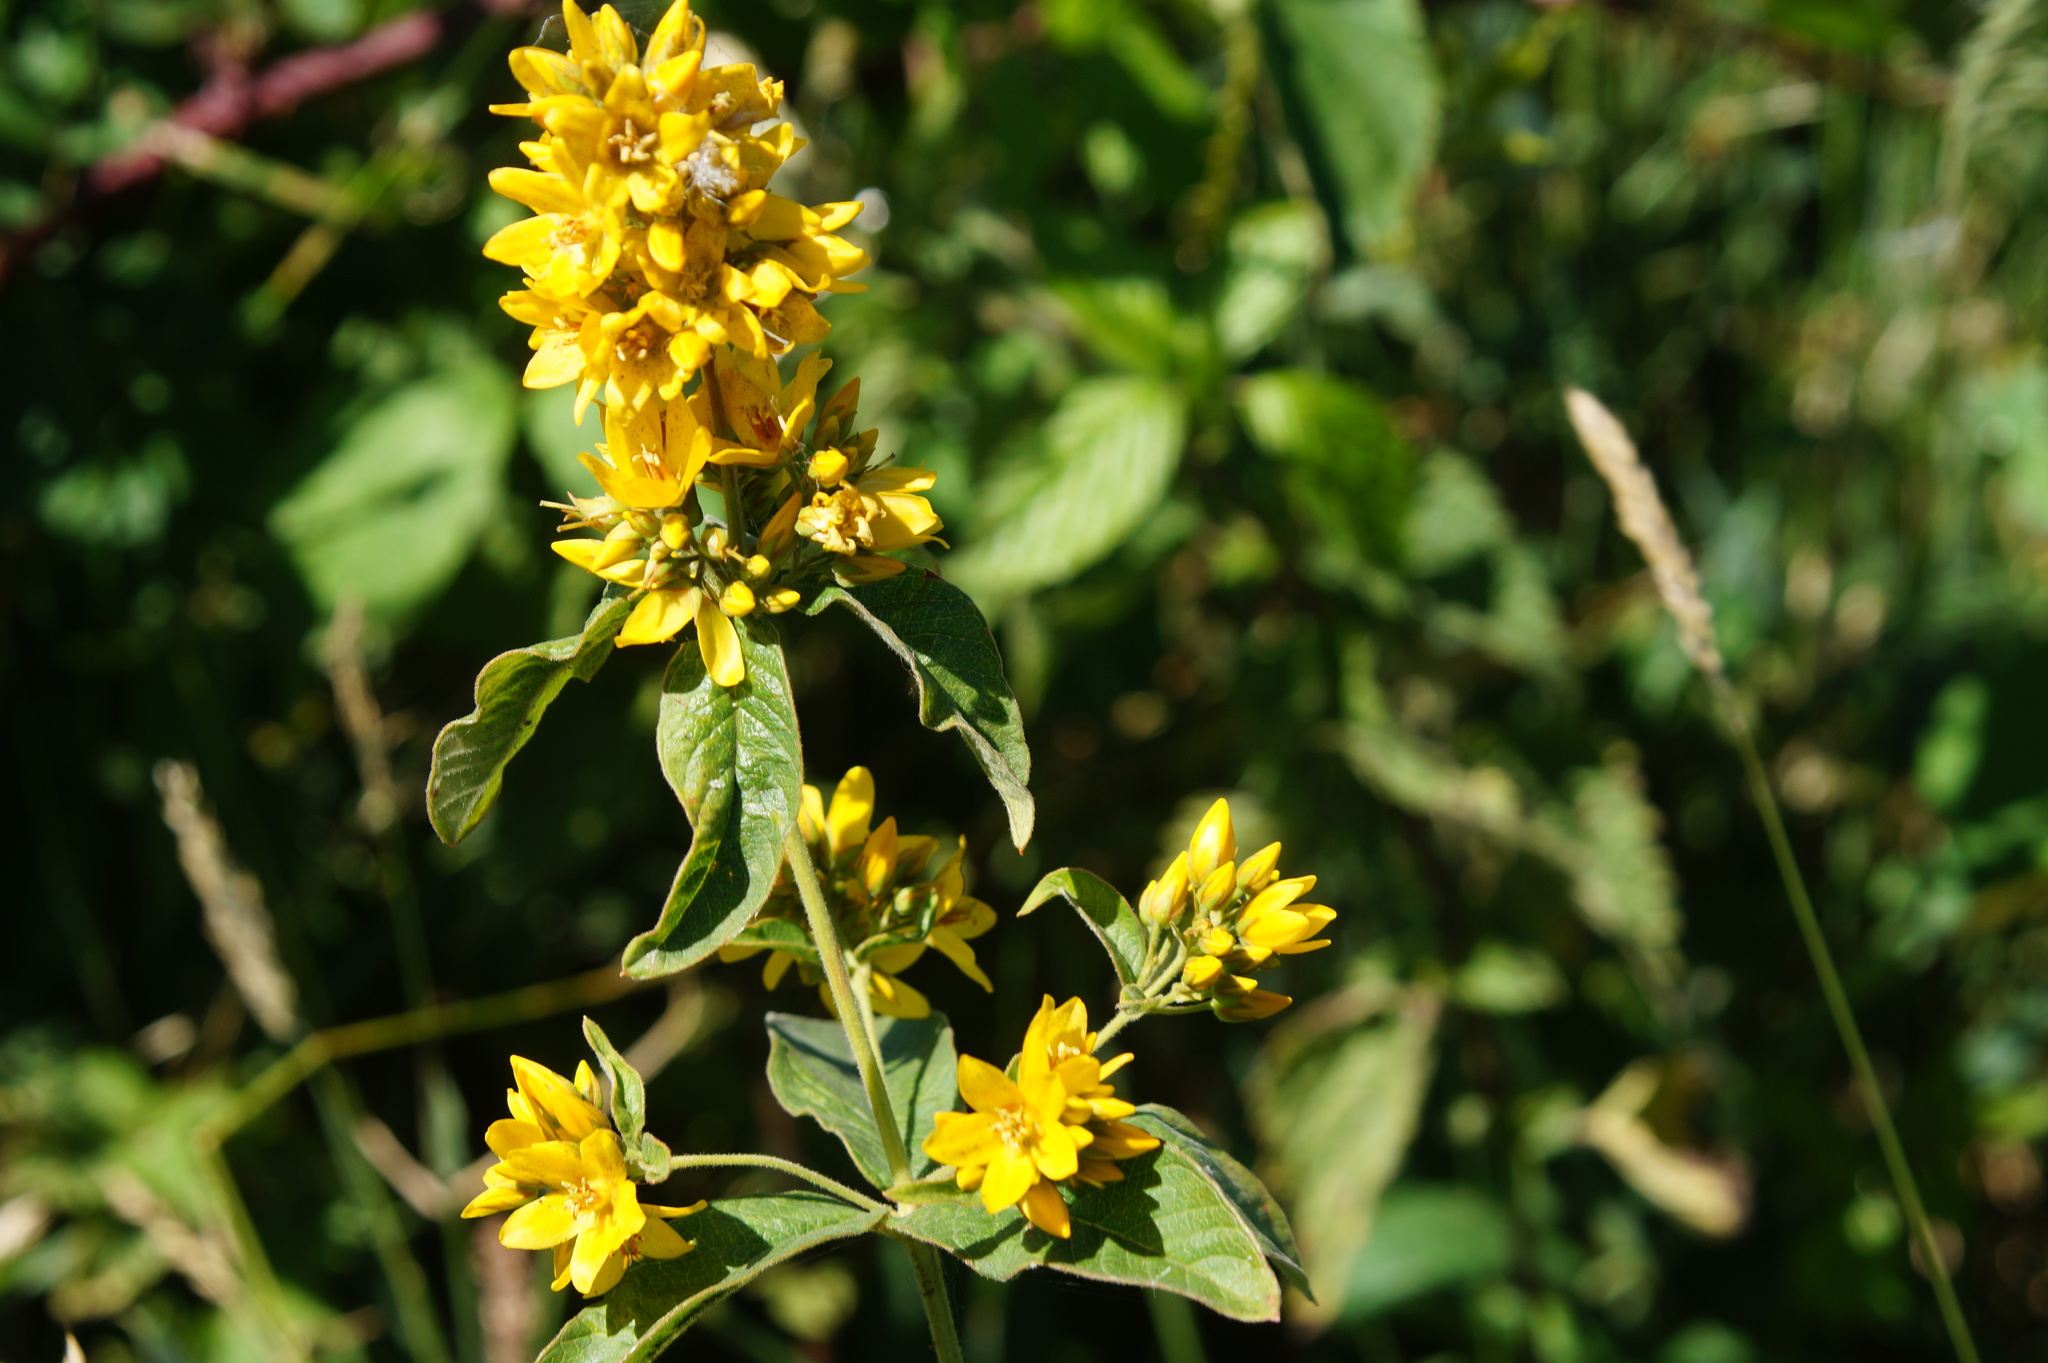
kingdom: Plantae
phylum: Tracheophyta
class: Magnoliopsida
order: Ericales
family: Primulaceae
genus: Lysimachia
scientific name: Lysimachia vulgaris
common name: Yellow loosestrife
